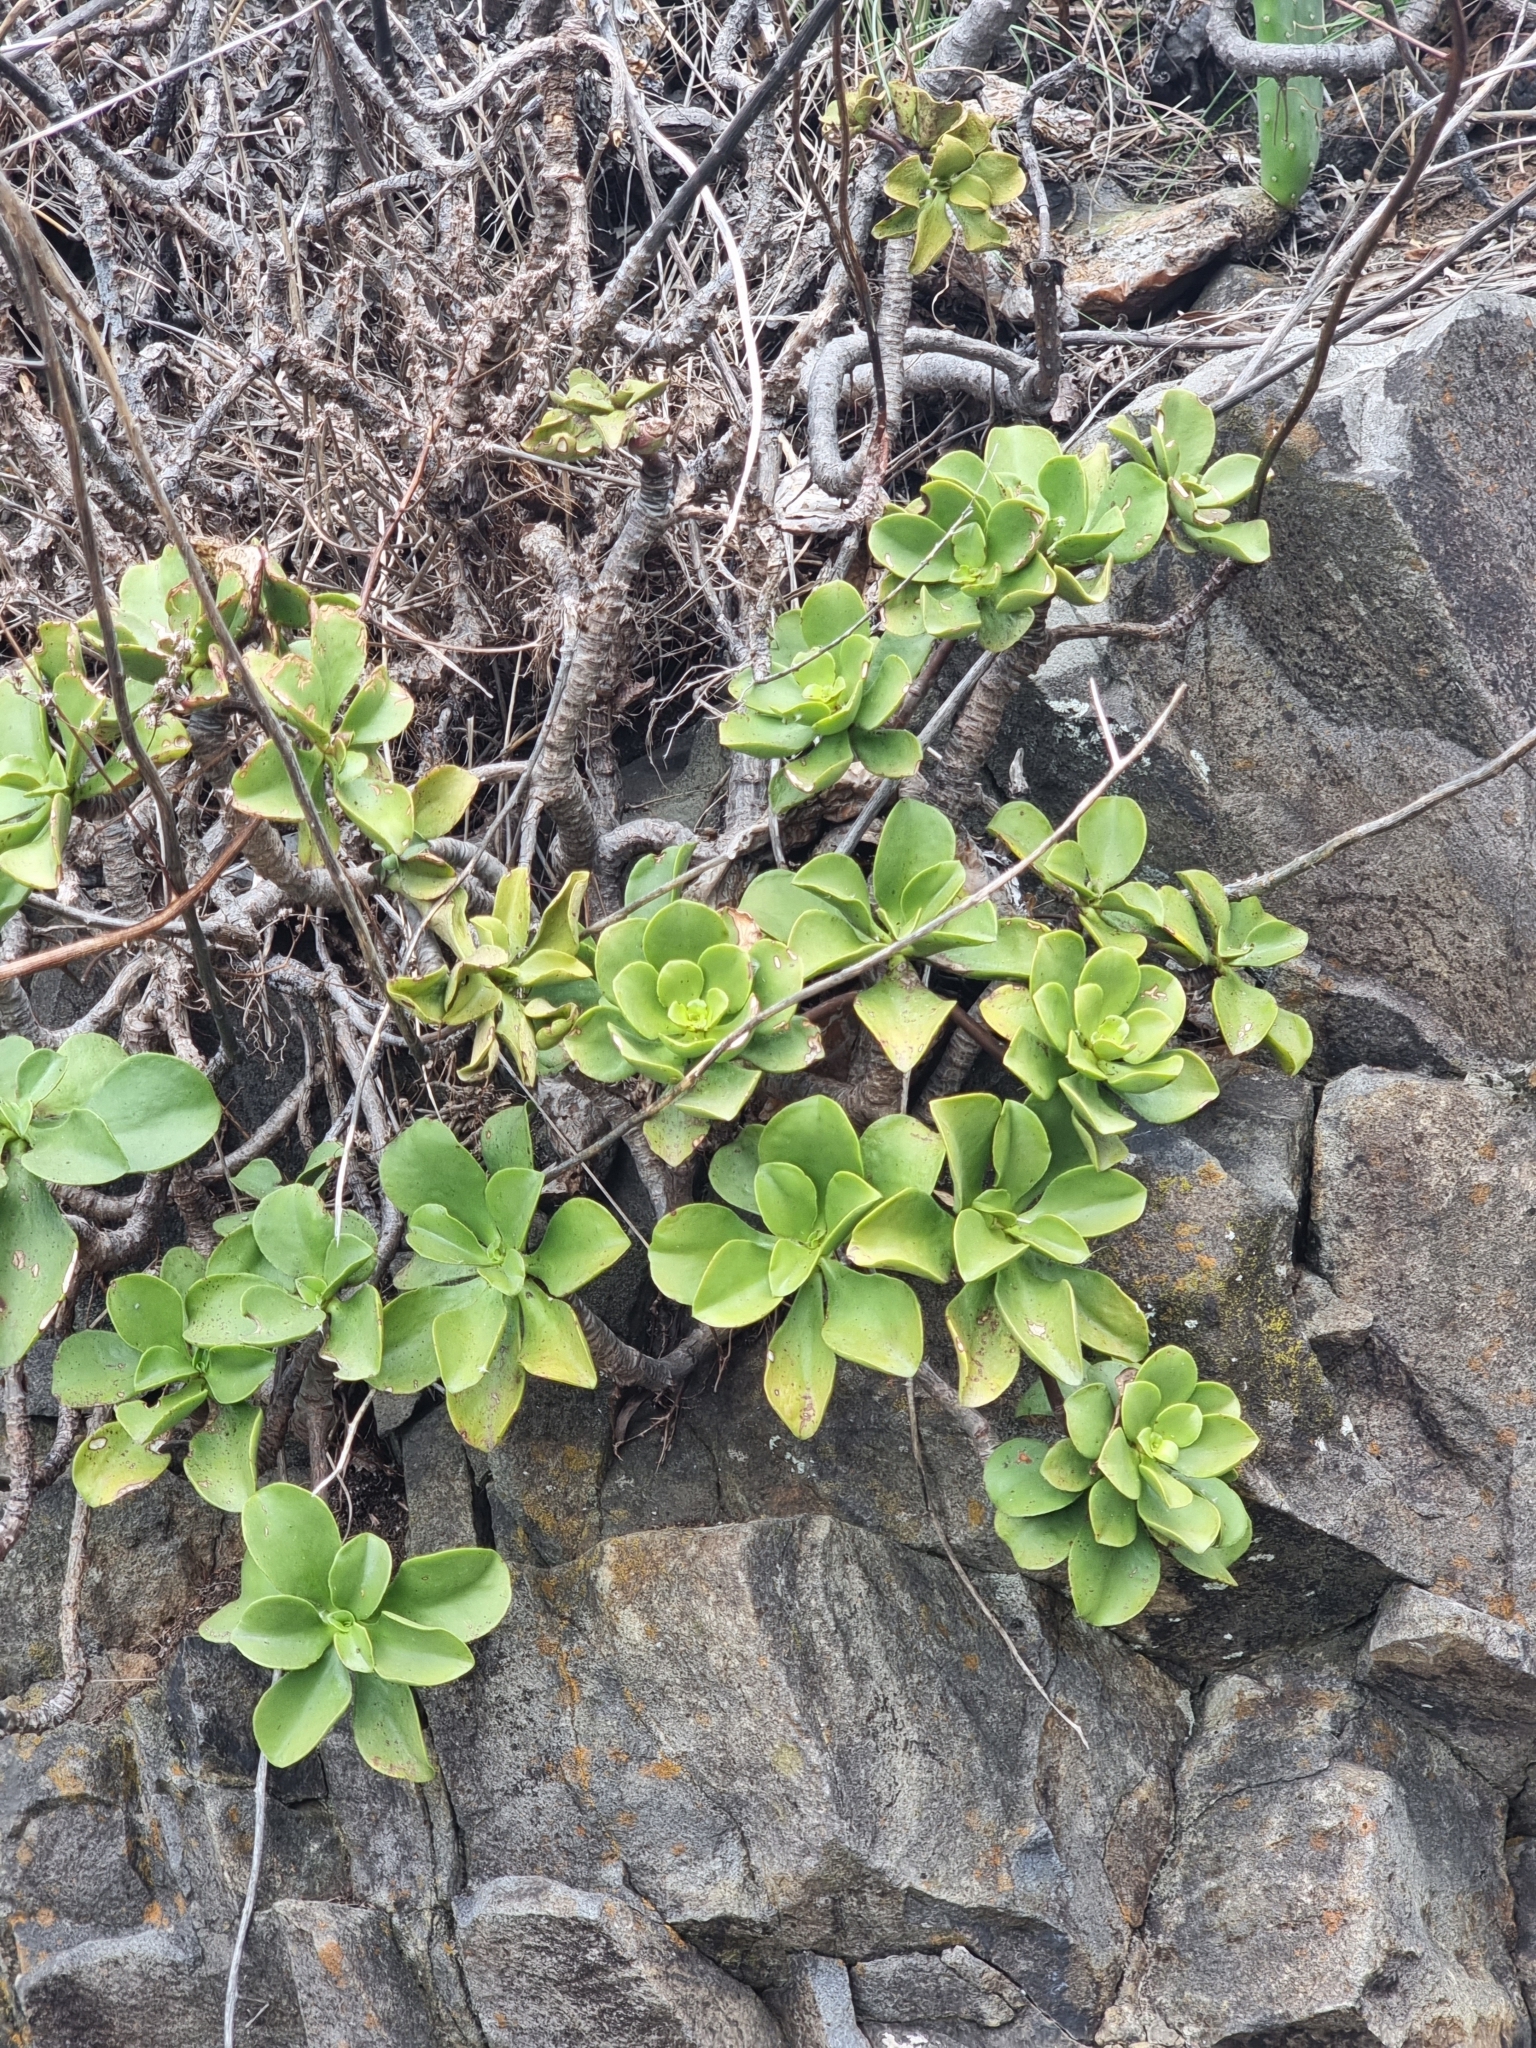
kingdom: Plantae
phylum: Tracheophyta
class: Magnoliopsida
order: Saxifragales
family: Crassulaceae
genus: Aeonium
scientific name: Aeonium glutinosum
